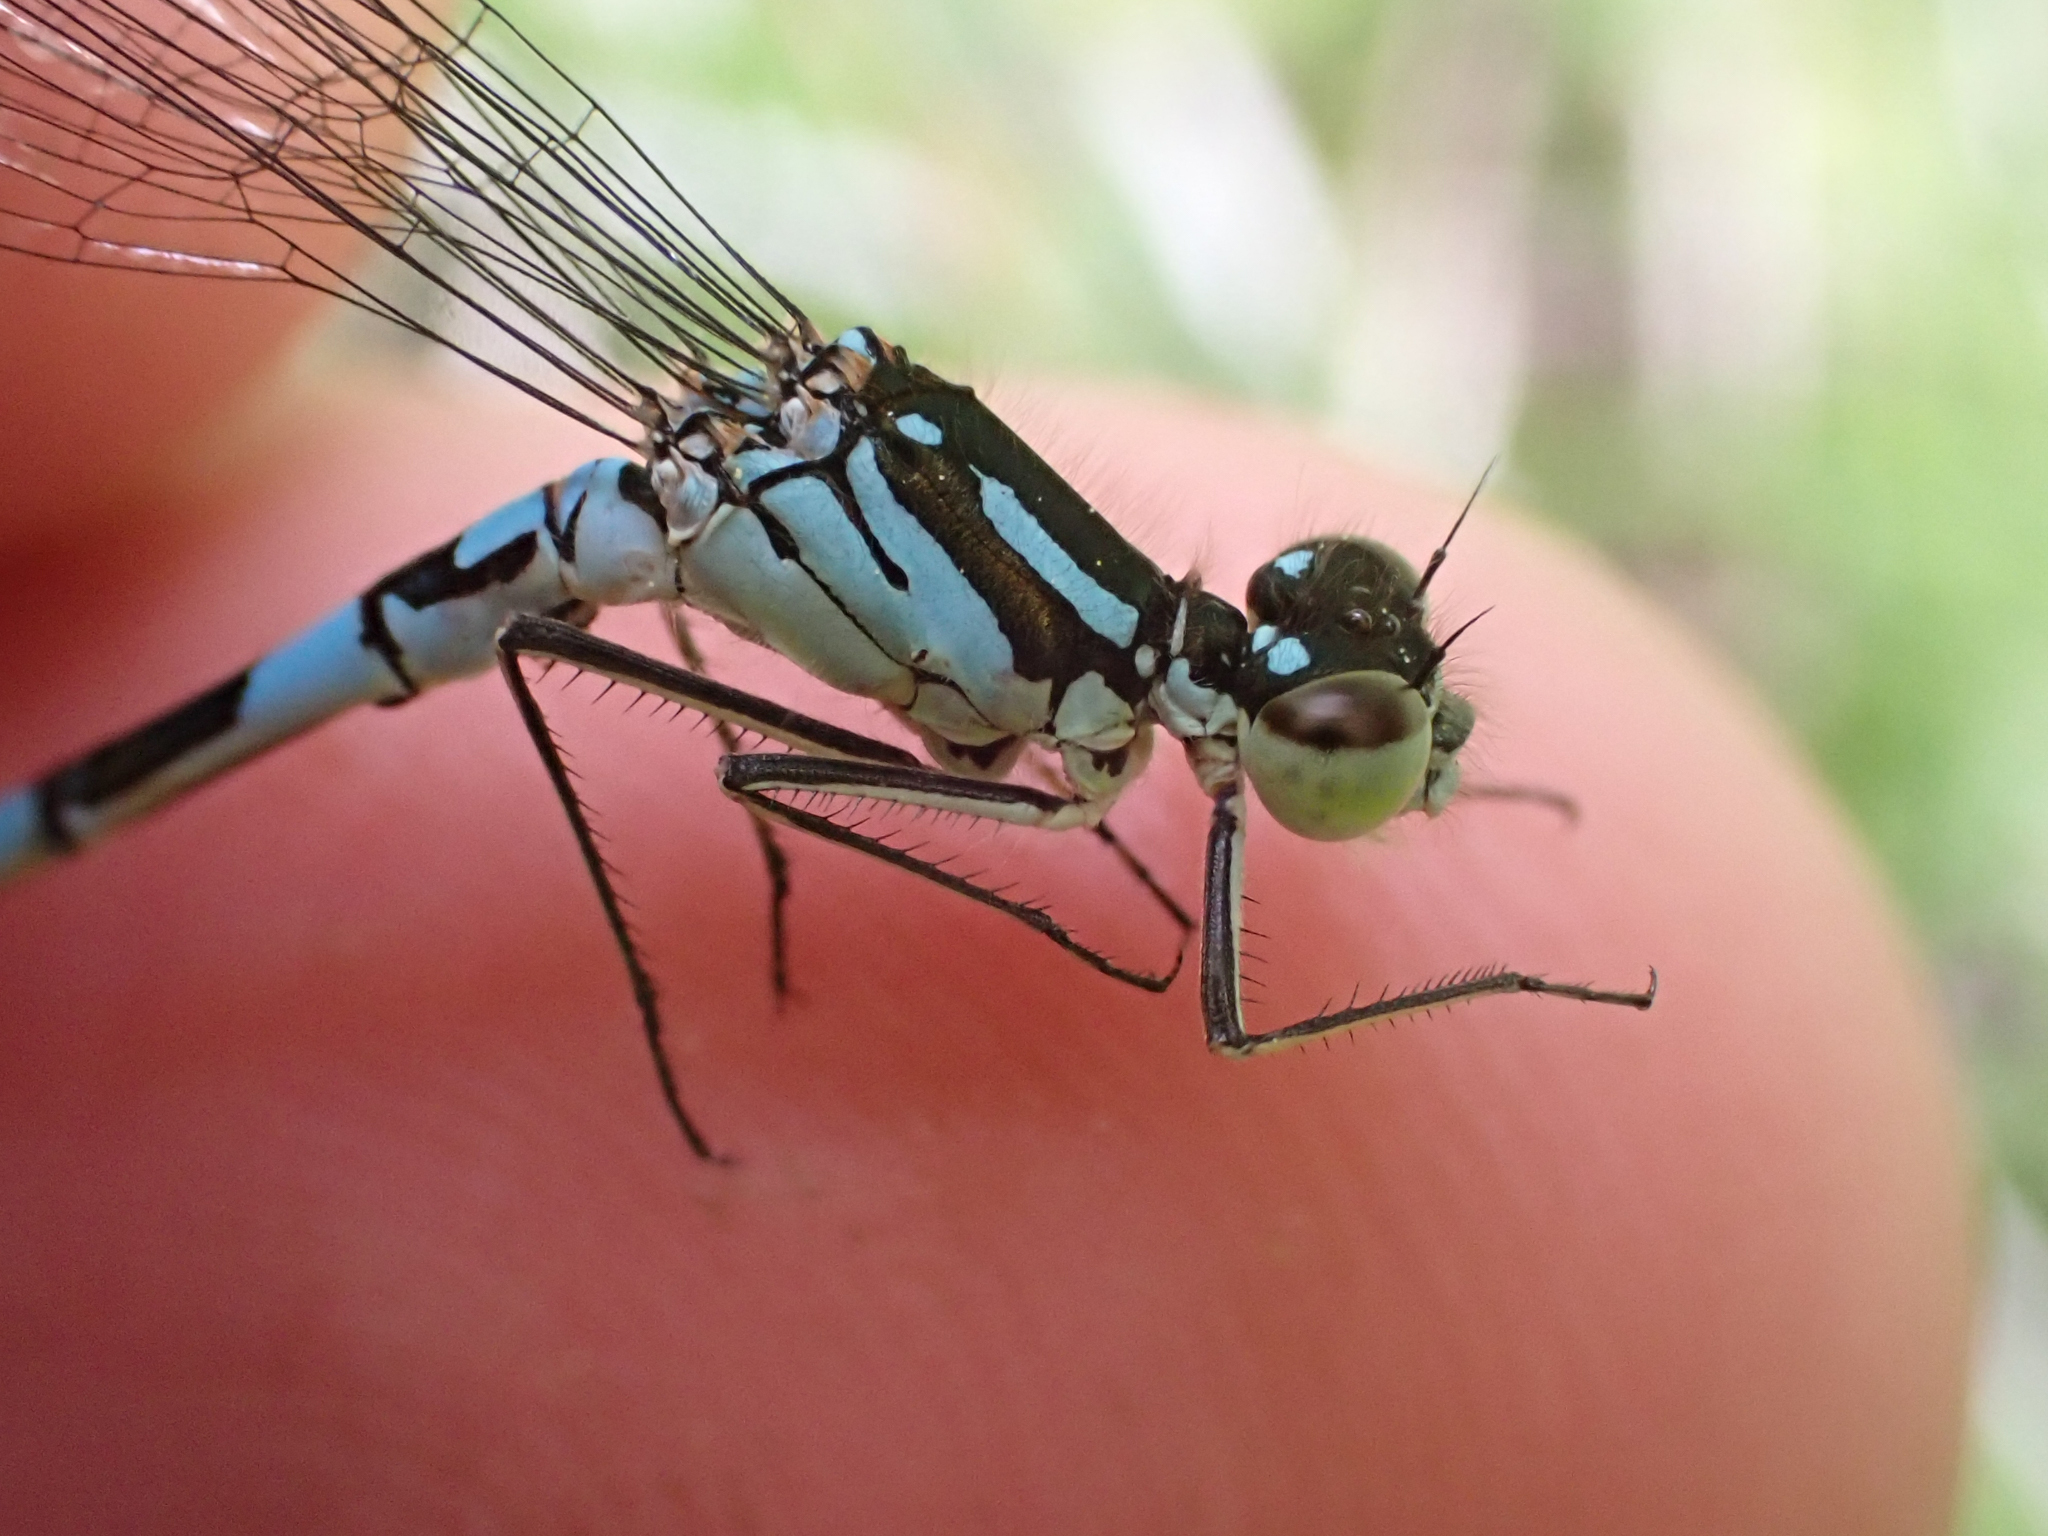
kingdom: Animalia
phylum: Arthropoda
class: Insecta
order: Odonata
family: Coenagrionidae
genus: Coenagrion
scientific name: Coenagrion resolutum
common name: Taiga bluet
